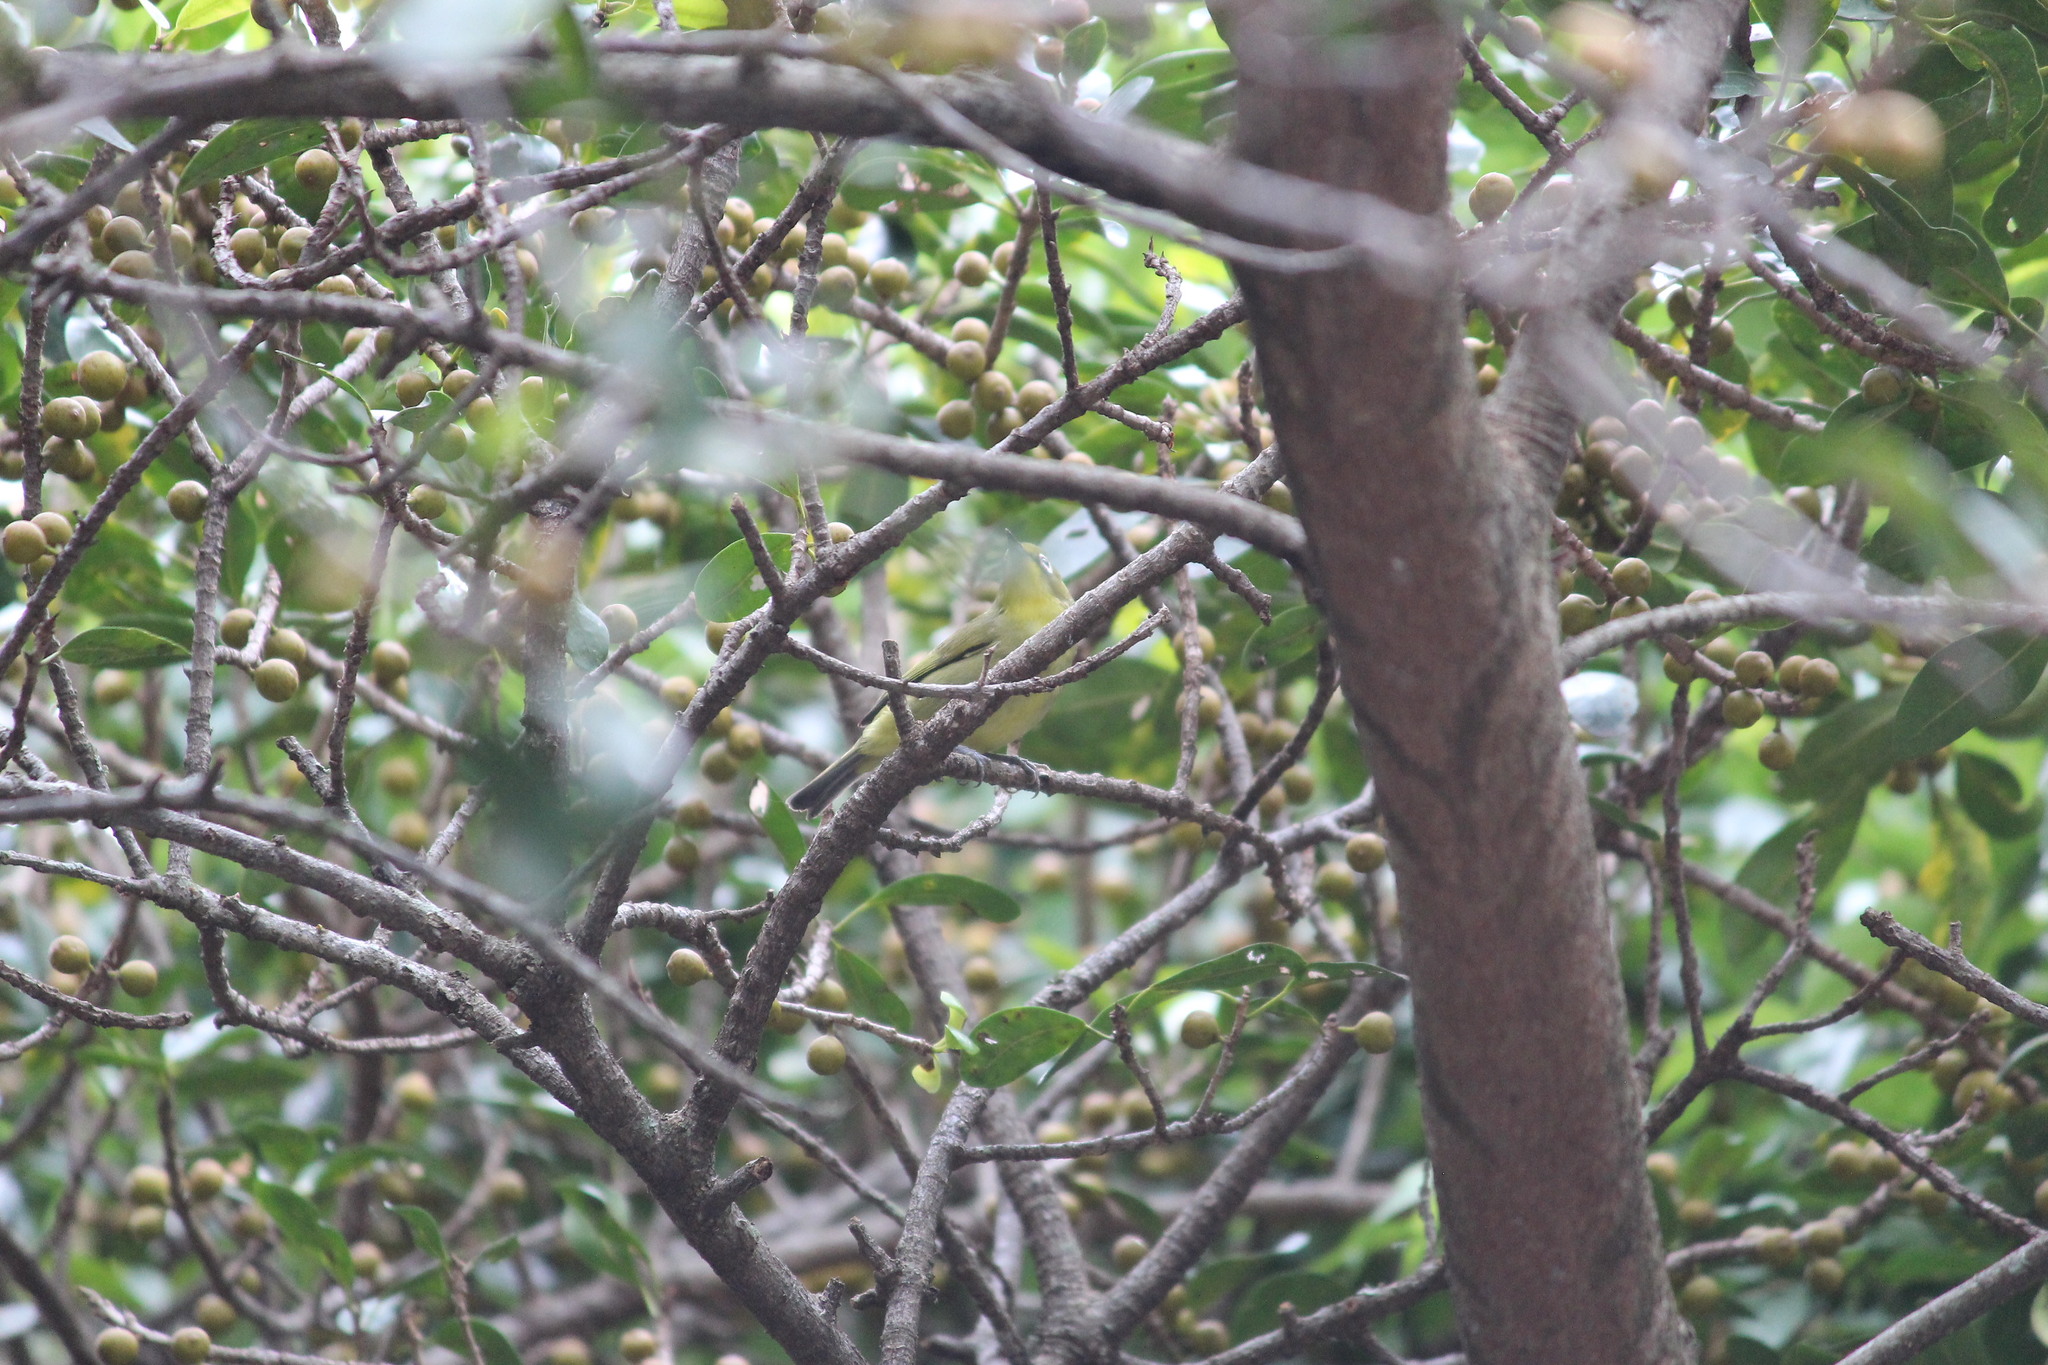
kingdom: Animalia
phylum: Chordata
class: Aves
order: Passeriformes
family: Zosteropidae
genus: Zosterops
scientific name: Zosterops virens
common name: Cape white-eye
